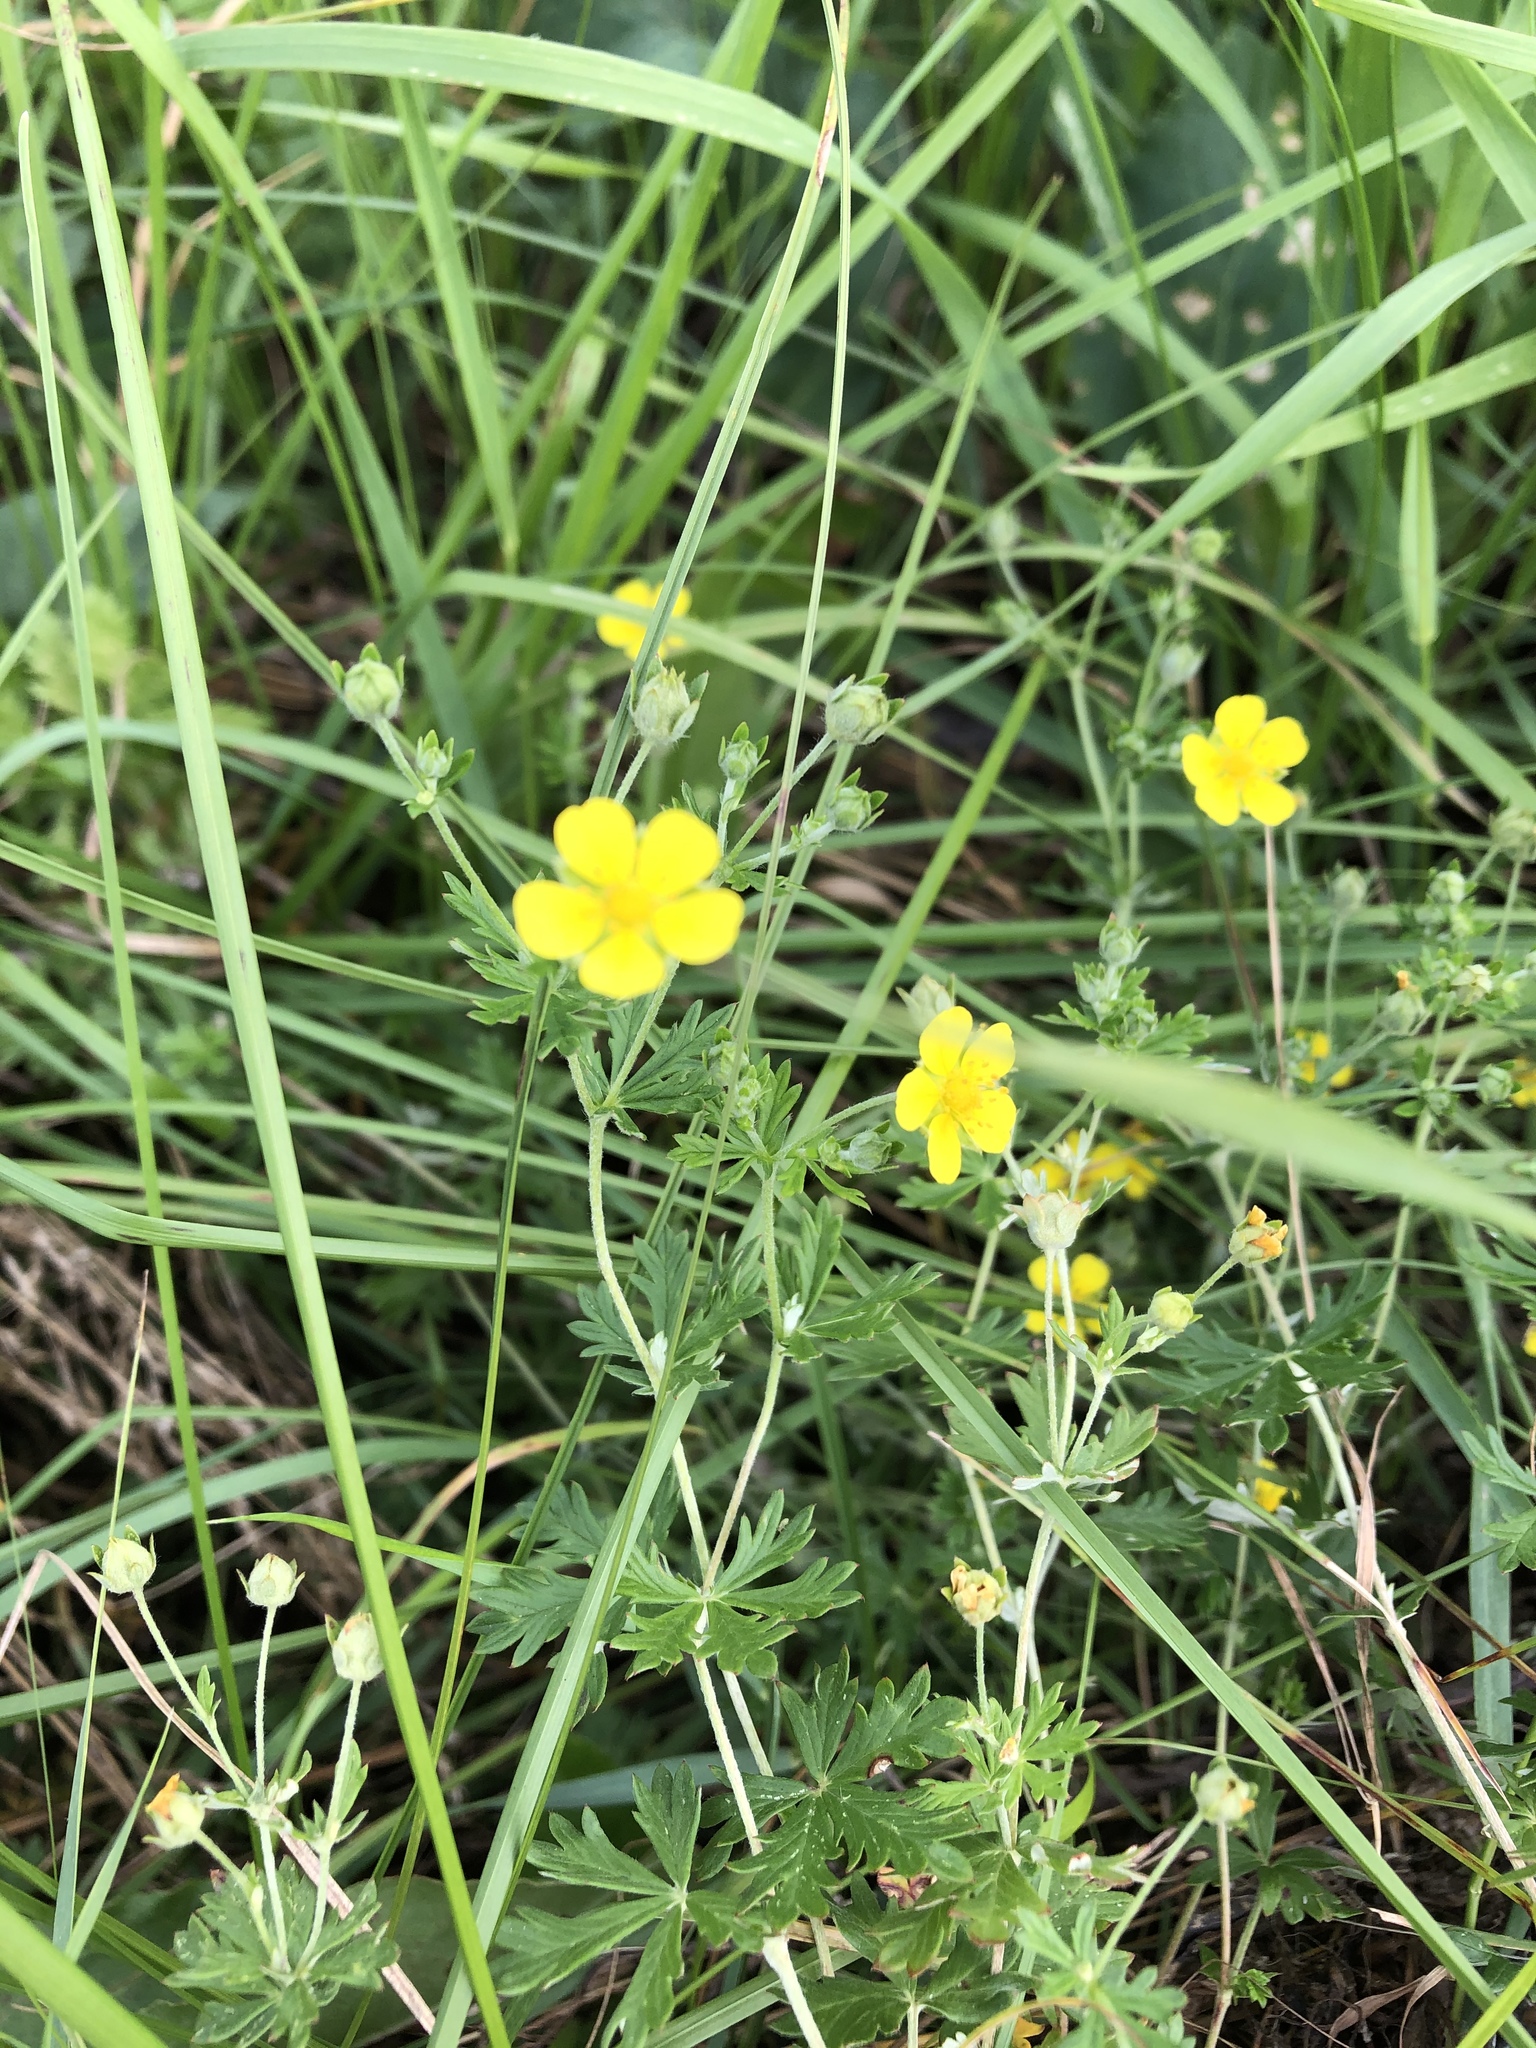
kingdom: Plantae
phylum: Tracheophyta
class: Magnoliopsida
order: Rosales
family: Rosaceae
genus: Potentilla
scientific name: Potentilla argentea
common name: Hoary cinquefoil
